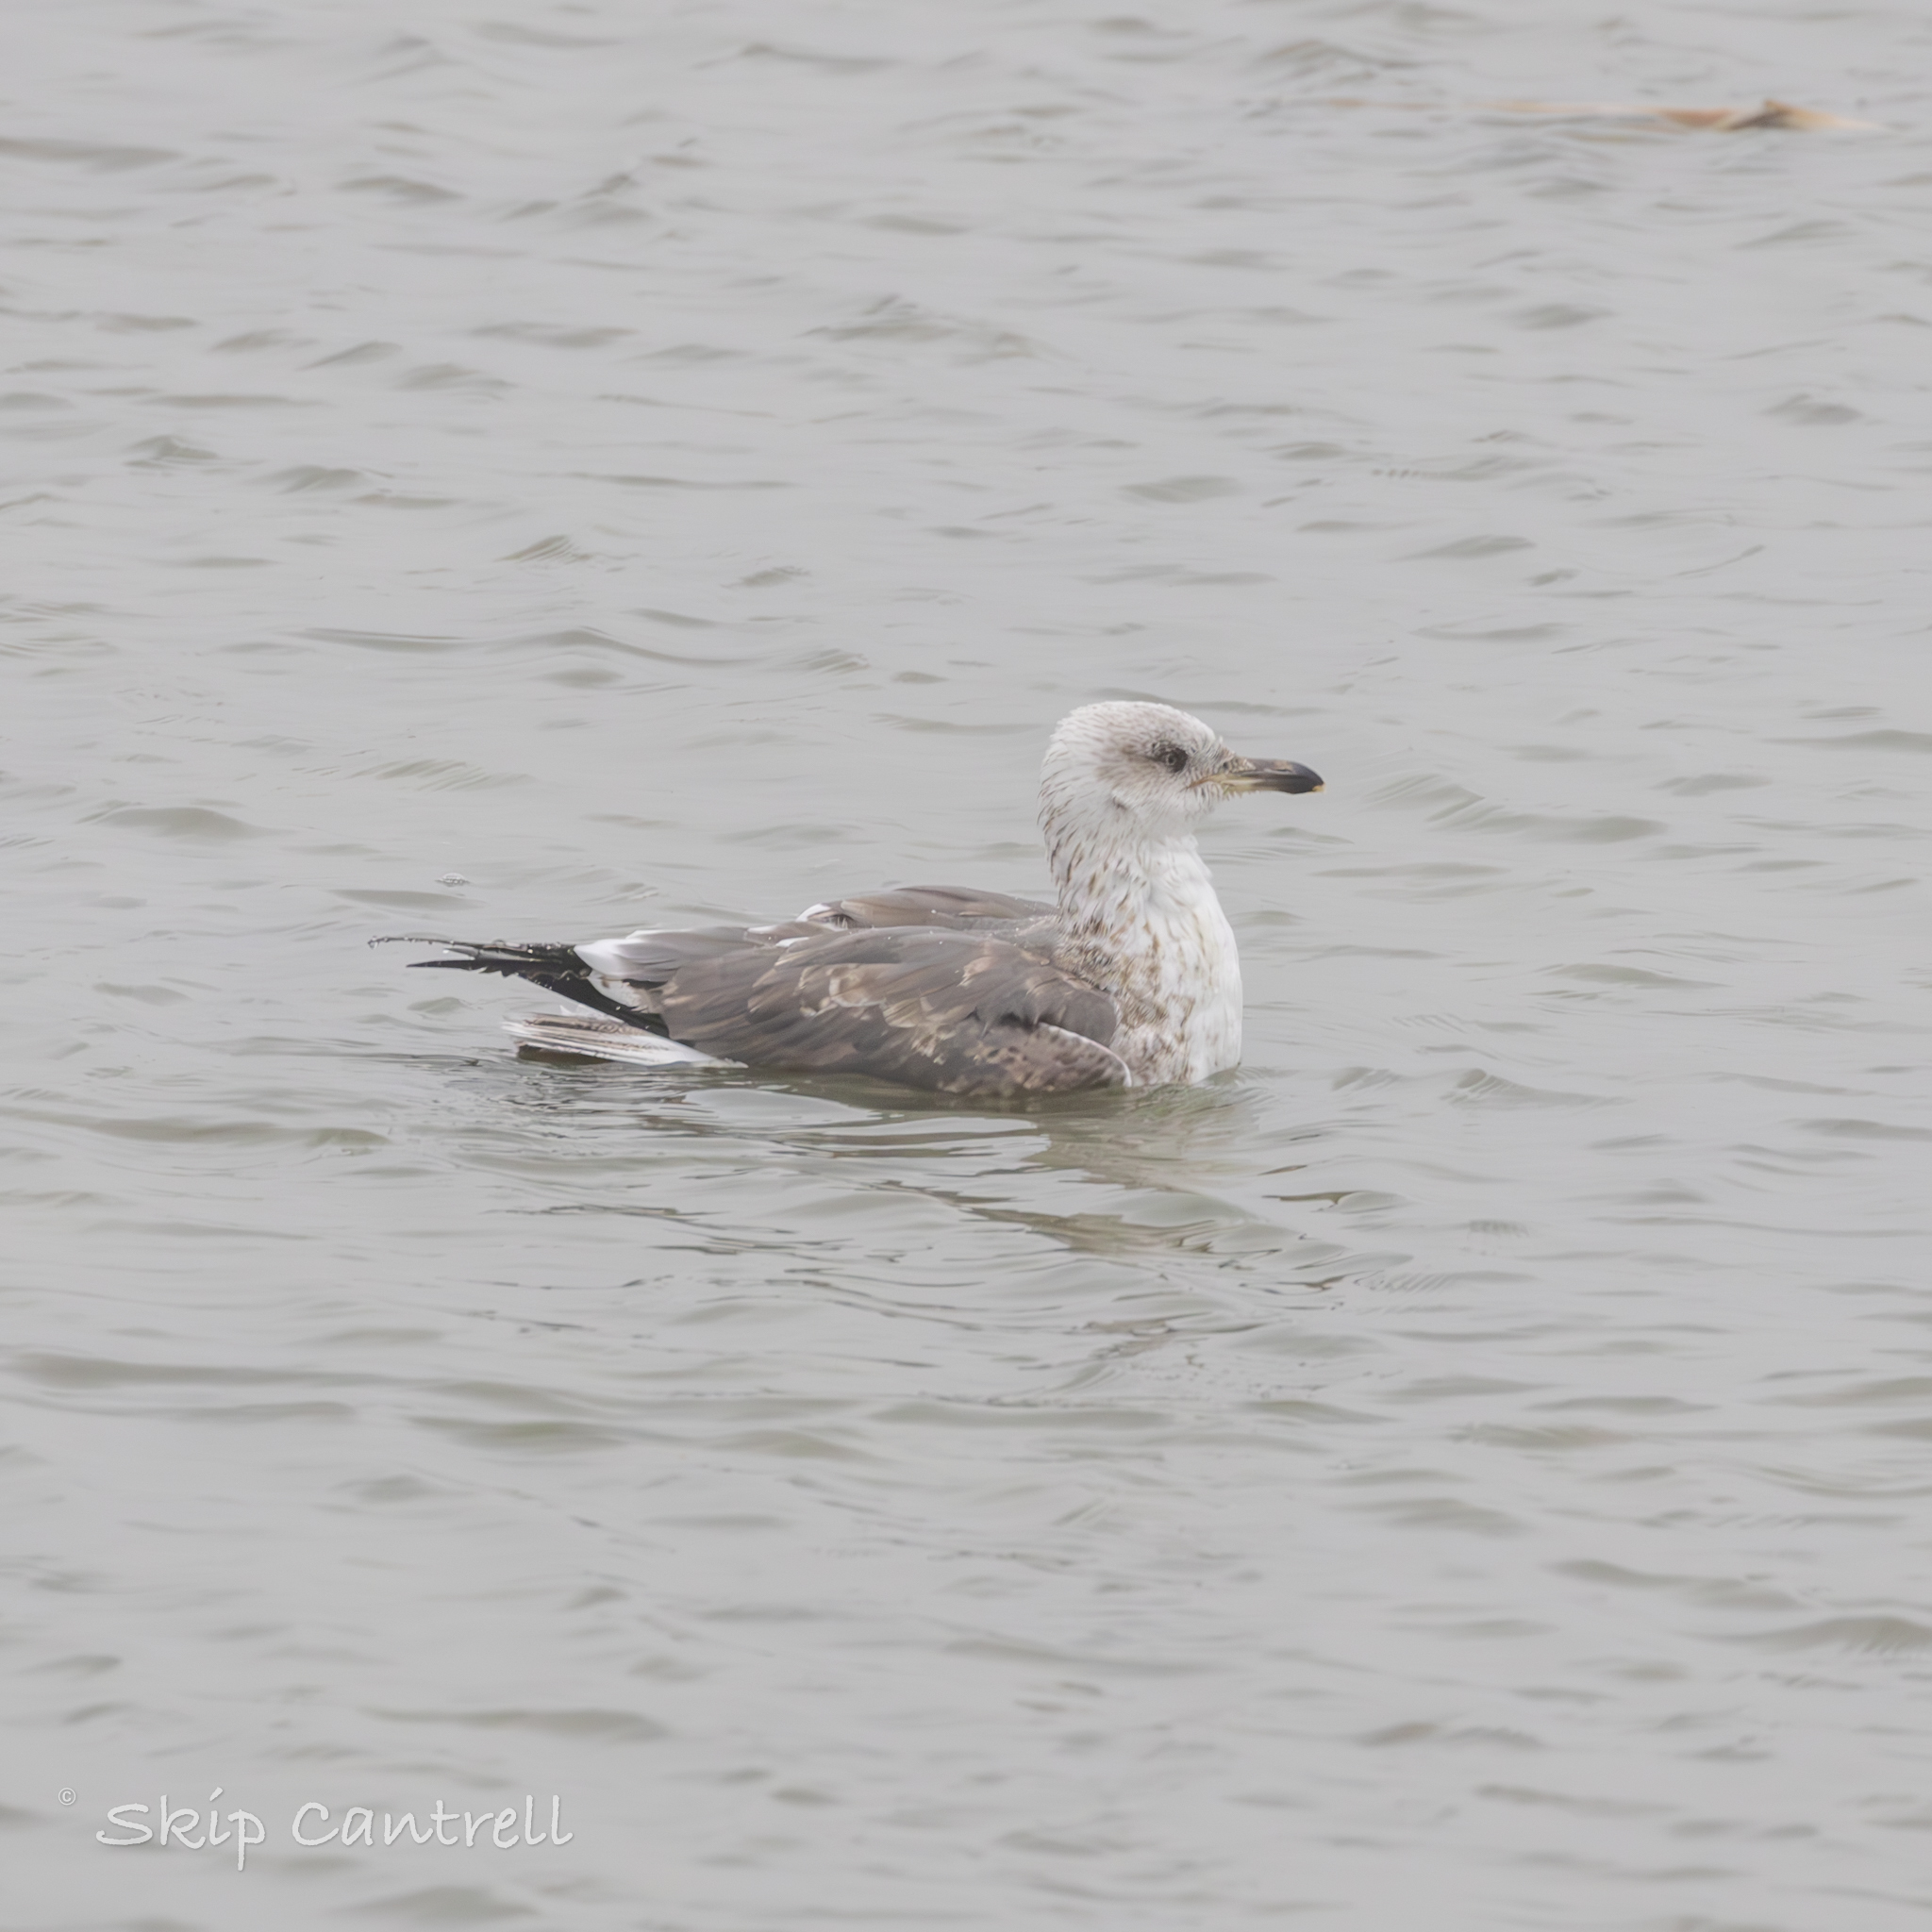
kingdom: Animalia
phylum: Chordata
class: Aves
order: Charadriiformes
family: Laridae
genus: Larus
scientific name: Larus fuscus
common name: Lesser black-backed gull
